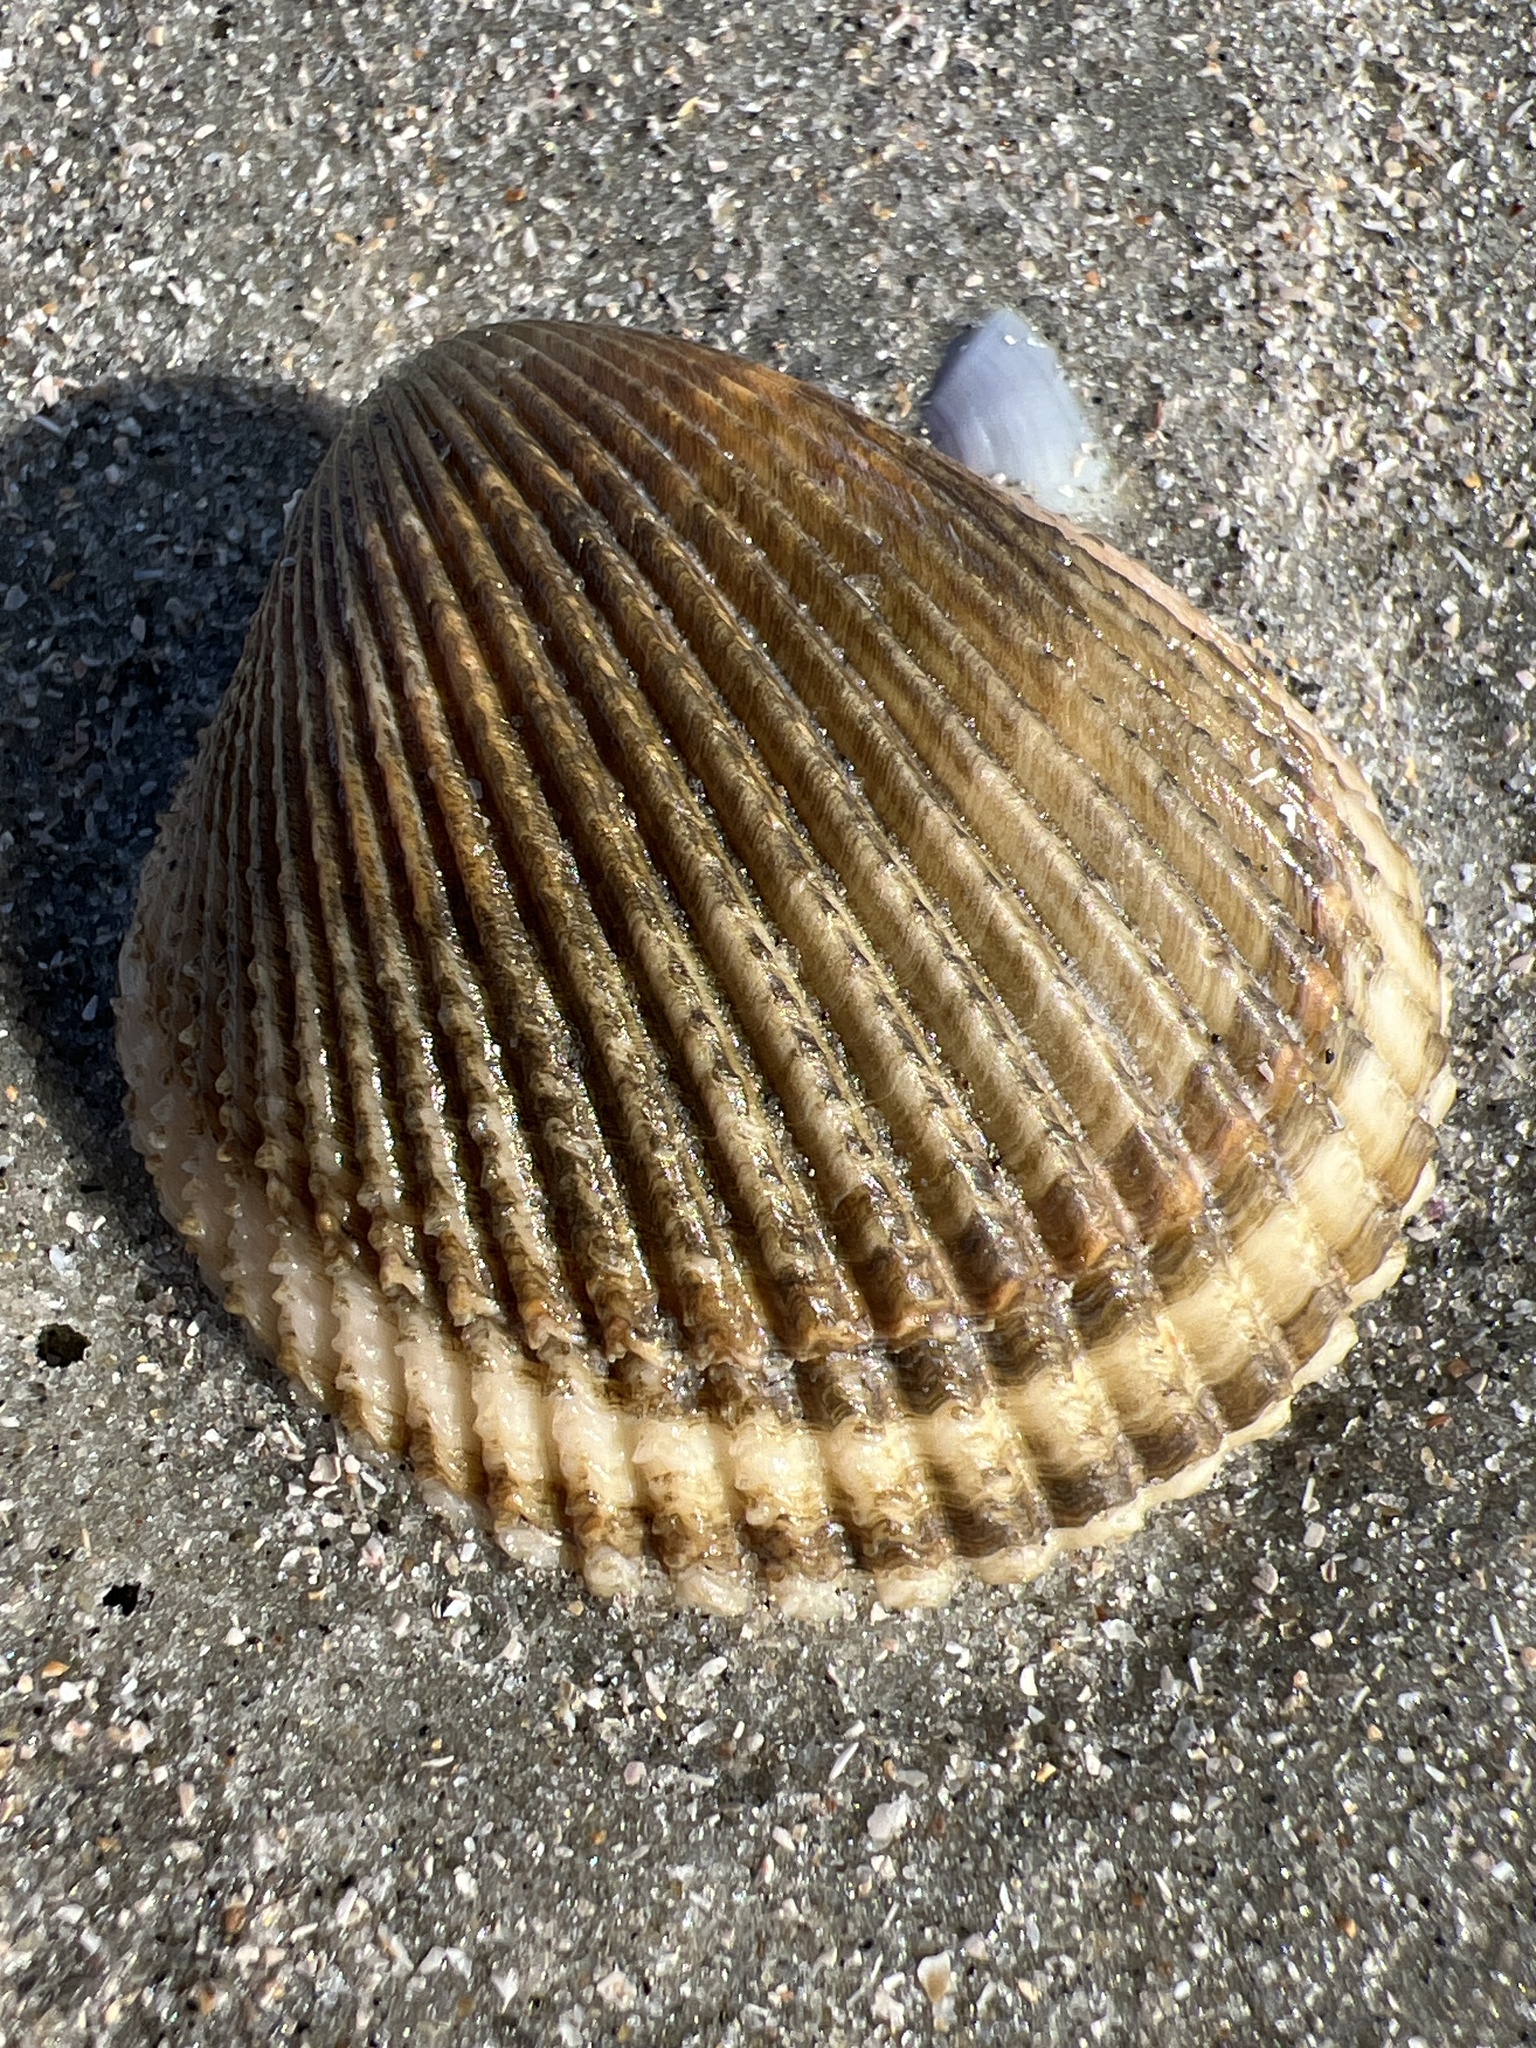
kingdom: Animalia
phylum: Mollusca
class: Bivalvia
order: Cardiida
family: Cardiidae
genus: Dinocardium
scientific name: Dinocardium robustum
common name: Atlantic giant cockle
